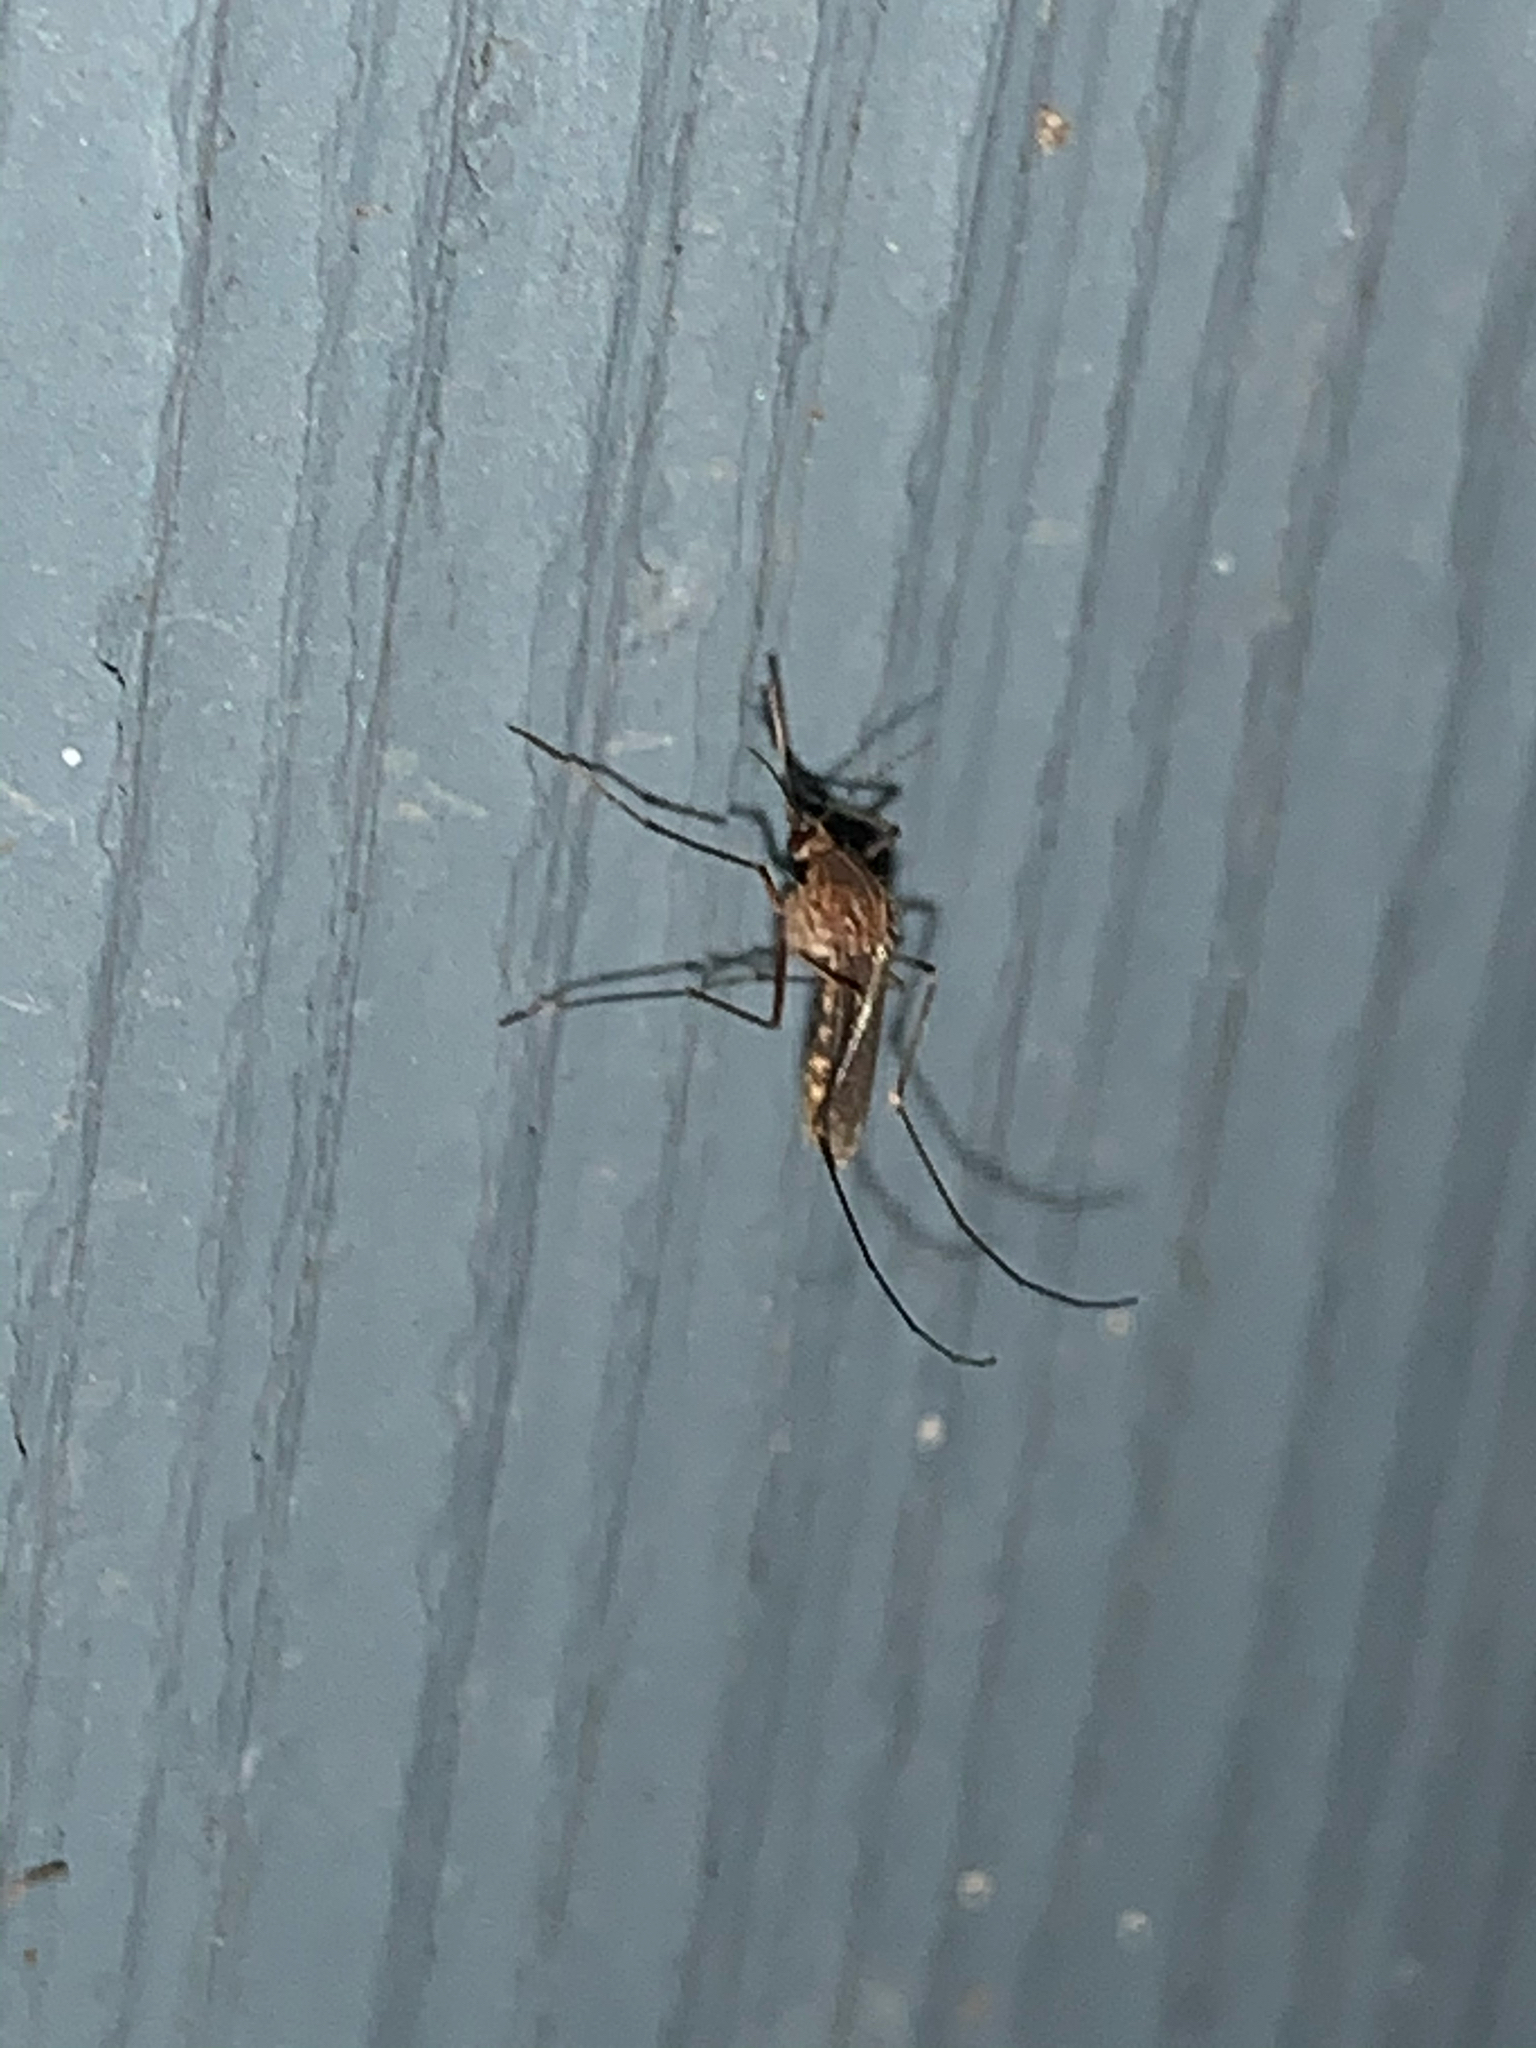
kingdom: Animalia
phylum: Arthropoda
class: Insecta
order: Diptera
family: Culicidae
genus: Culex
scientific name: Culex
